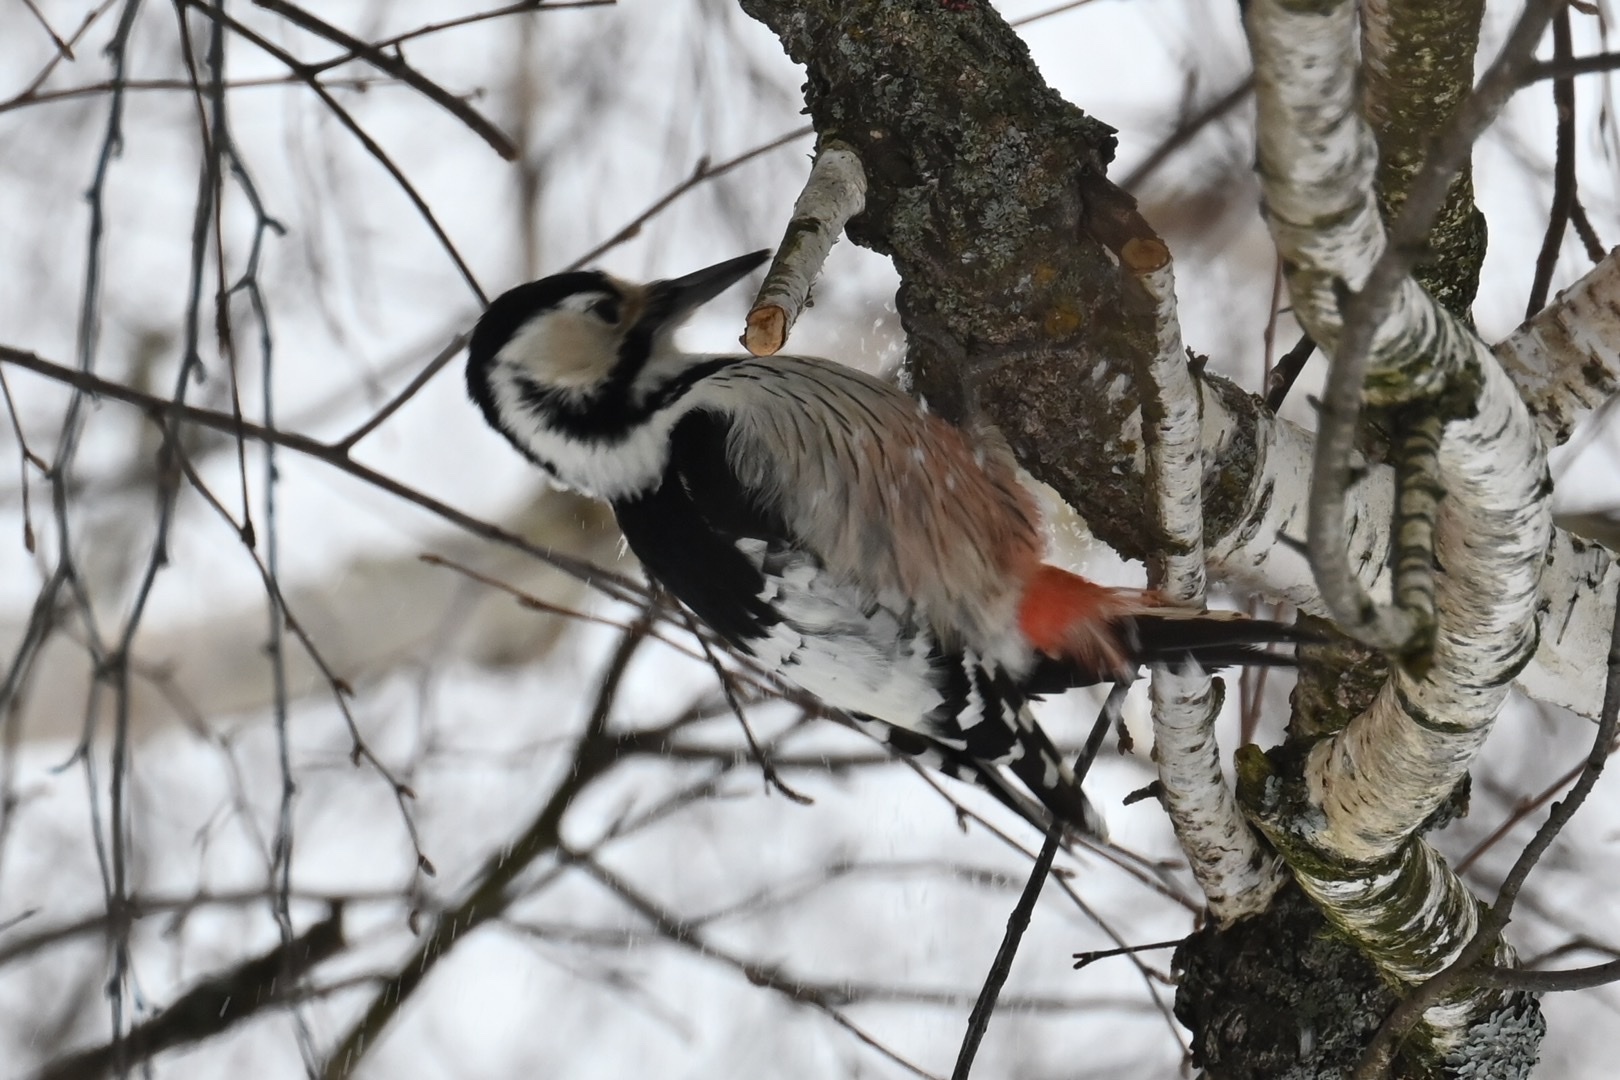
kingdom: Animalia
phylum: Chordata
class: Aves
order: Piciformes
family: Picidae
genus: Dendrocopos
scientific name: Dendrocopos leucotos
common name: White-backed woodpecker
